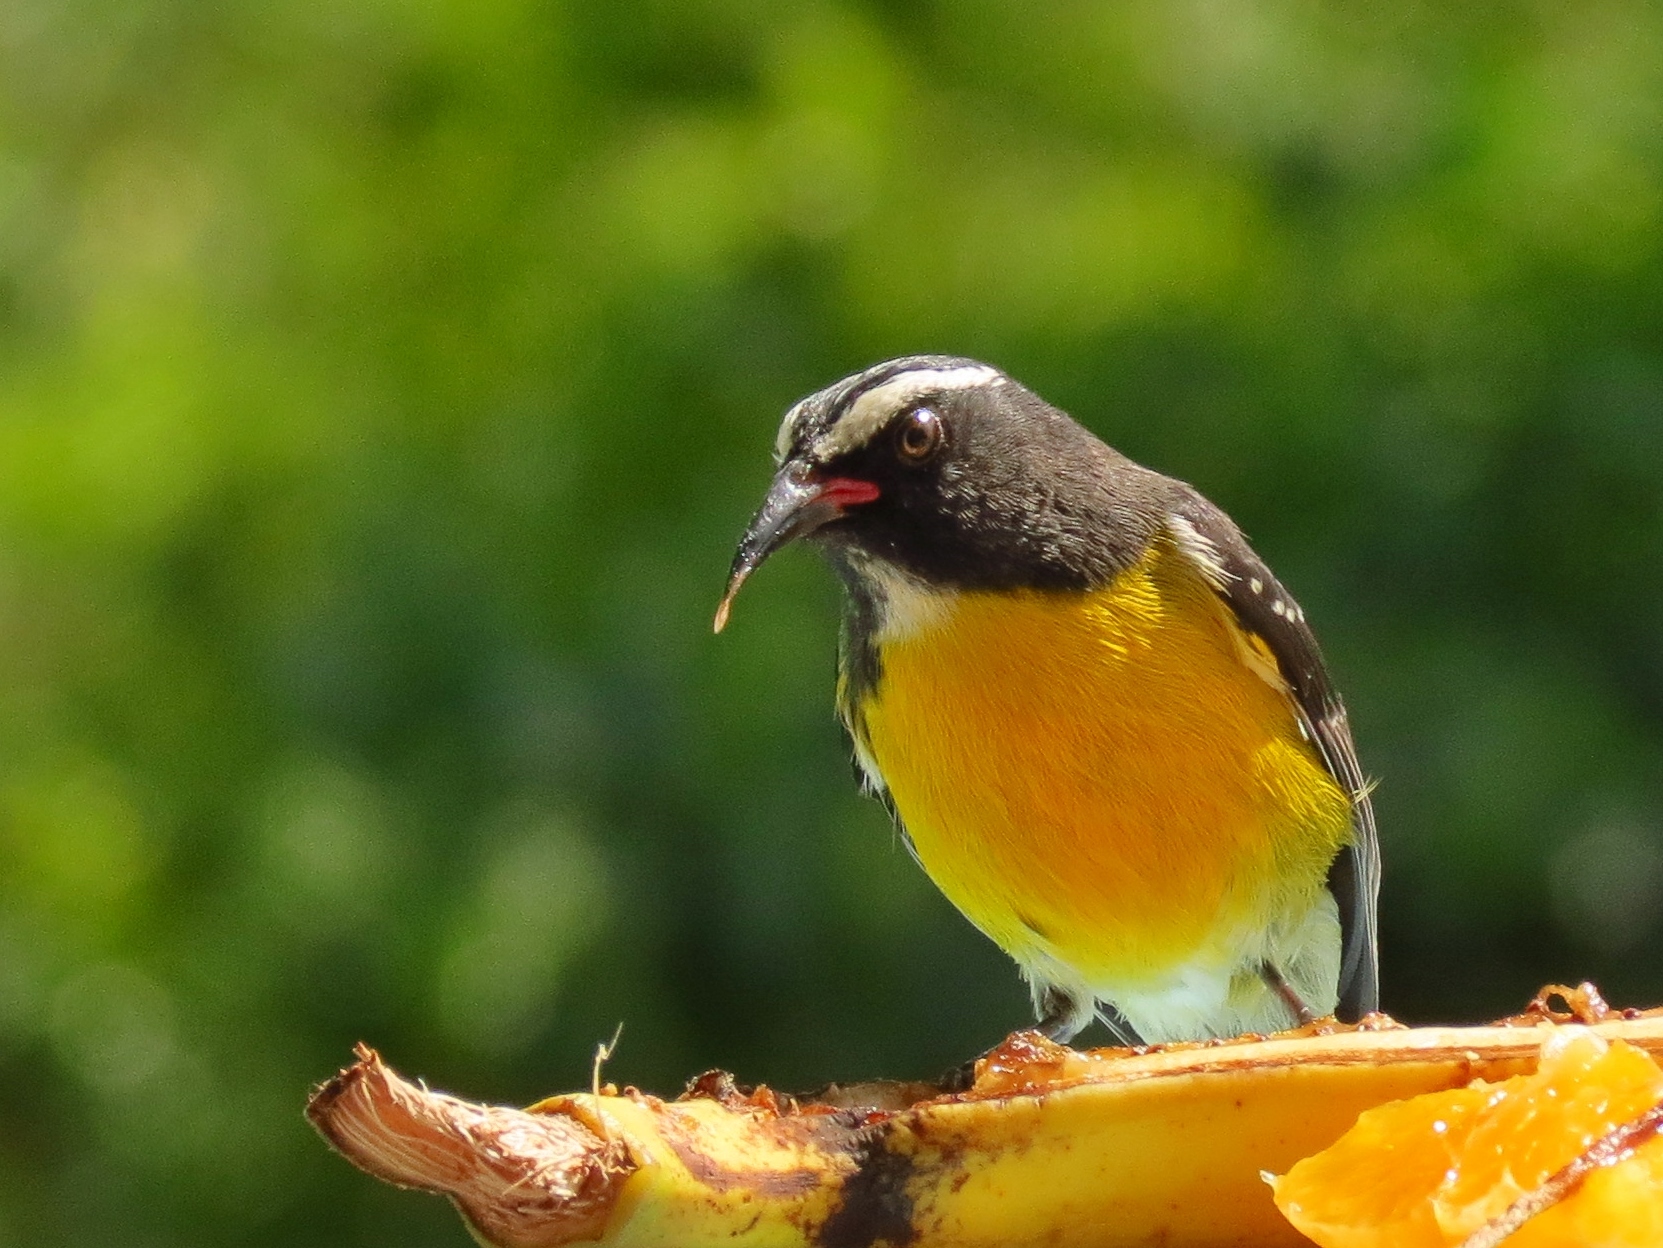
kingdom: Animalia
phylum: Chordata
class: Aves
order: Passeriformes
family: Thraupidae
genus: Coereba
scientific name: Coereba flaveola
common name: Bananaquit
